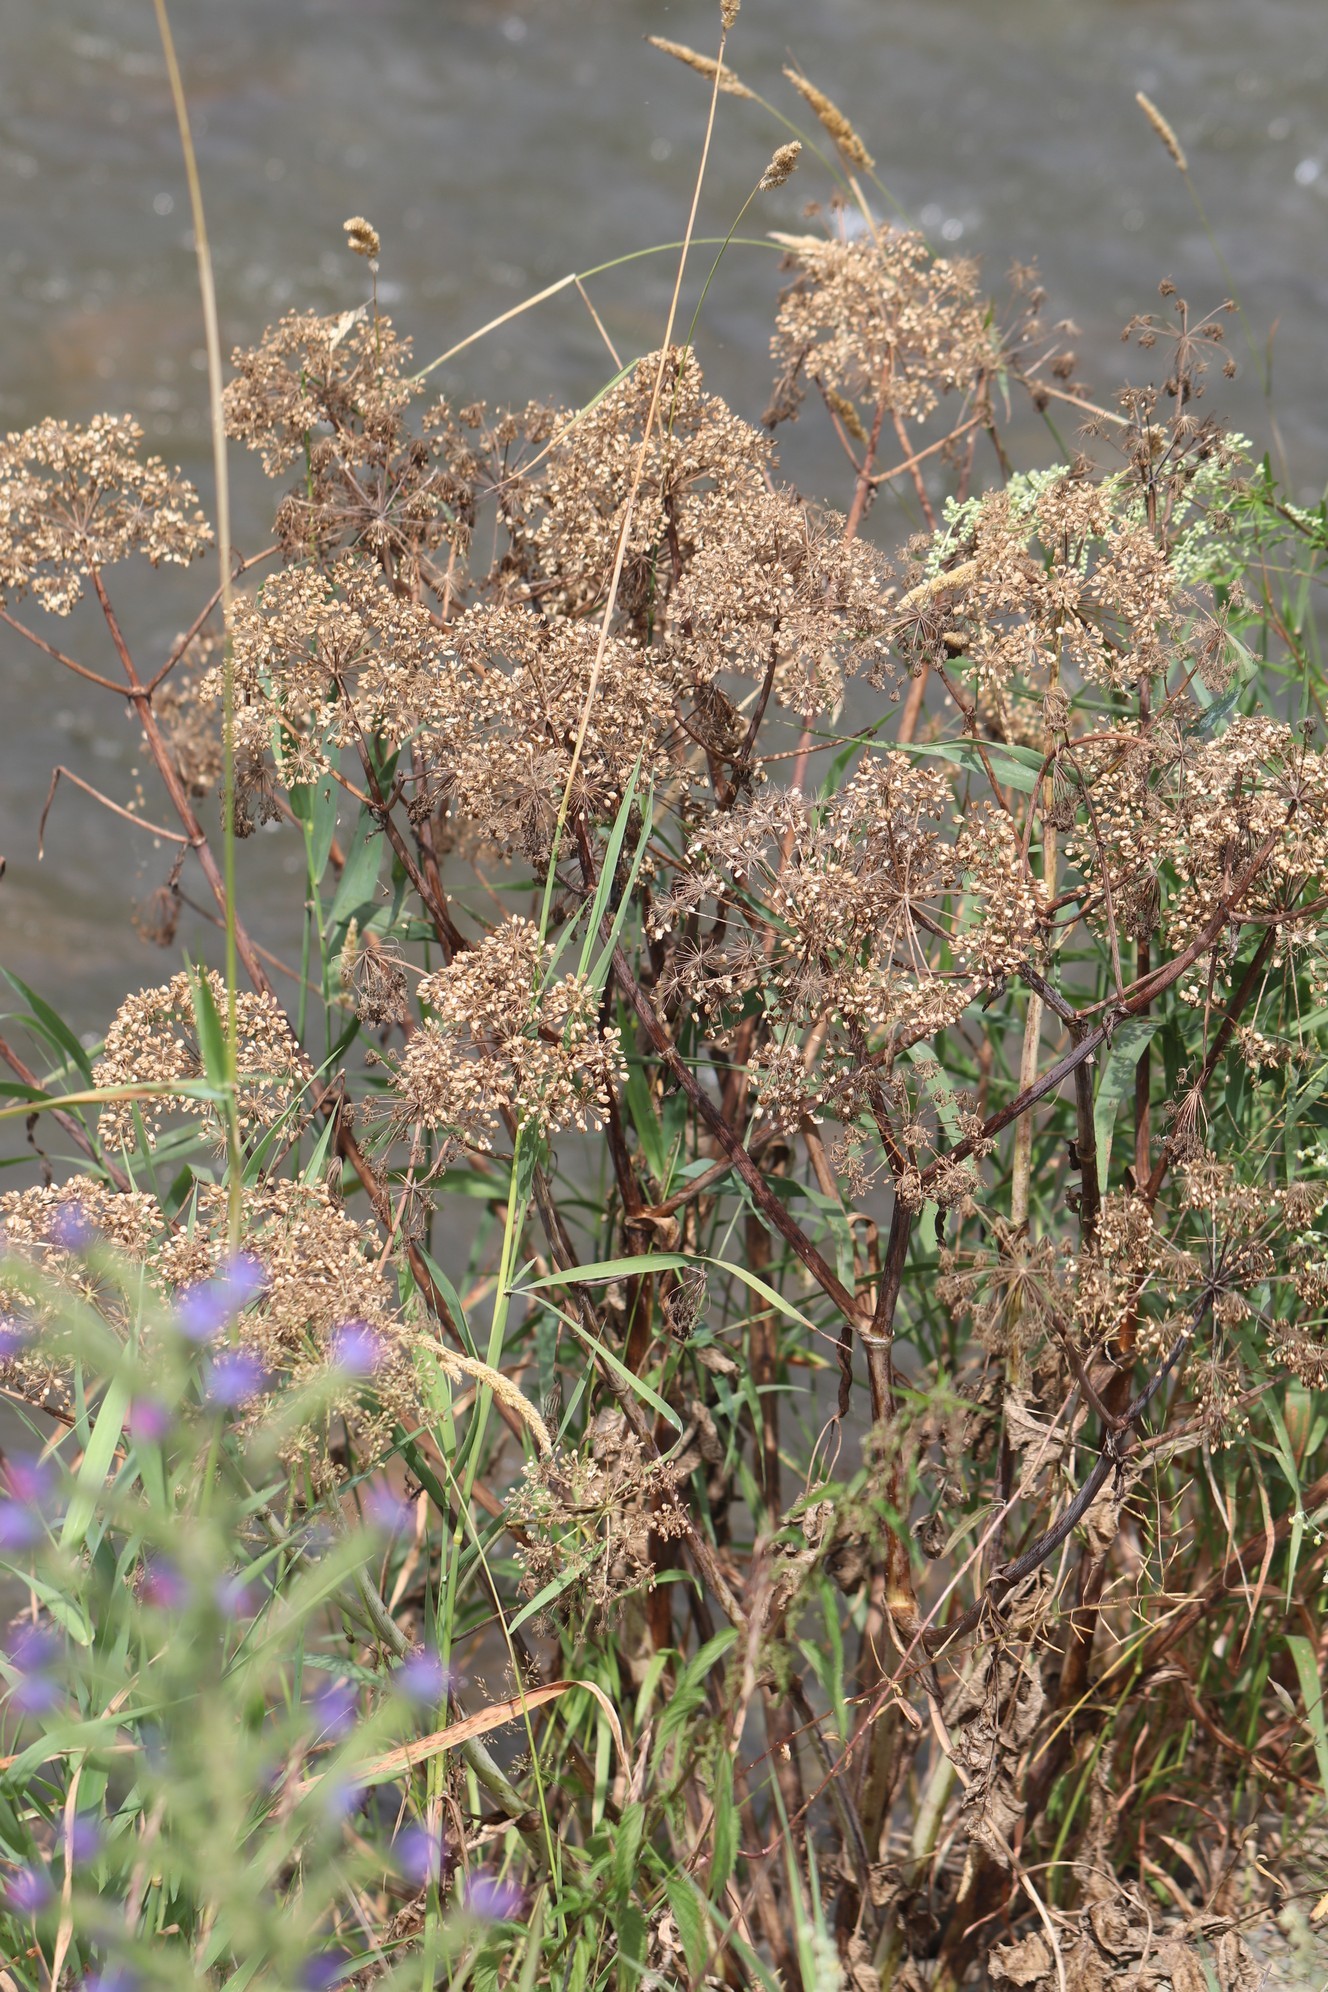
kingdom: Plantae
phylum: Tracheophyta
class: Magnoliopsida
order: Apiales
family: Apiaceae
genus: Angelica
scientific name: Angelica decurrens
